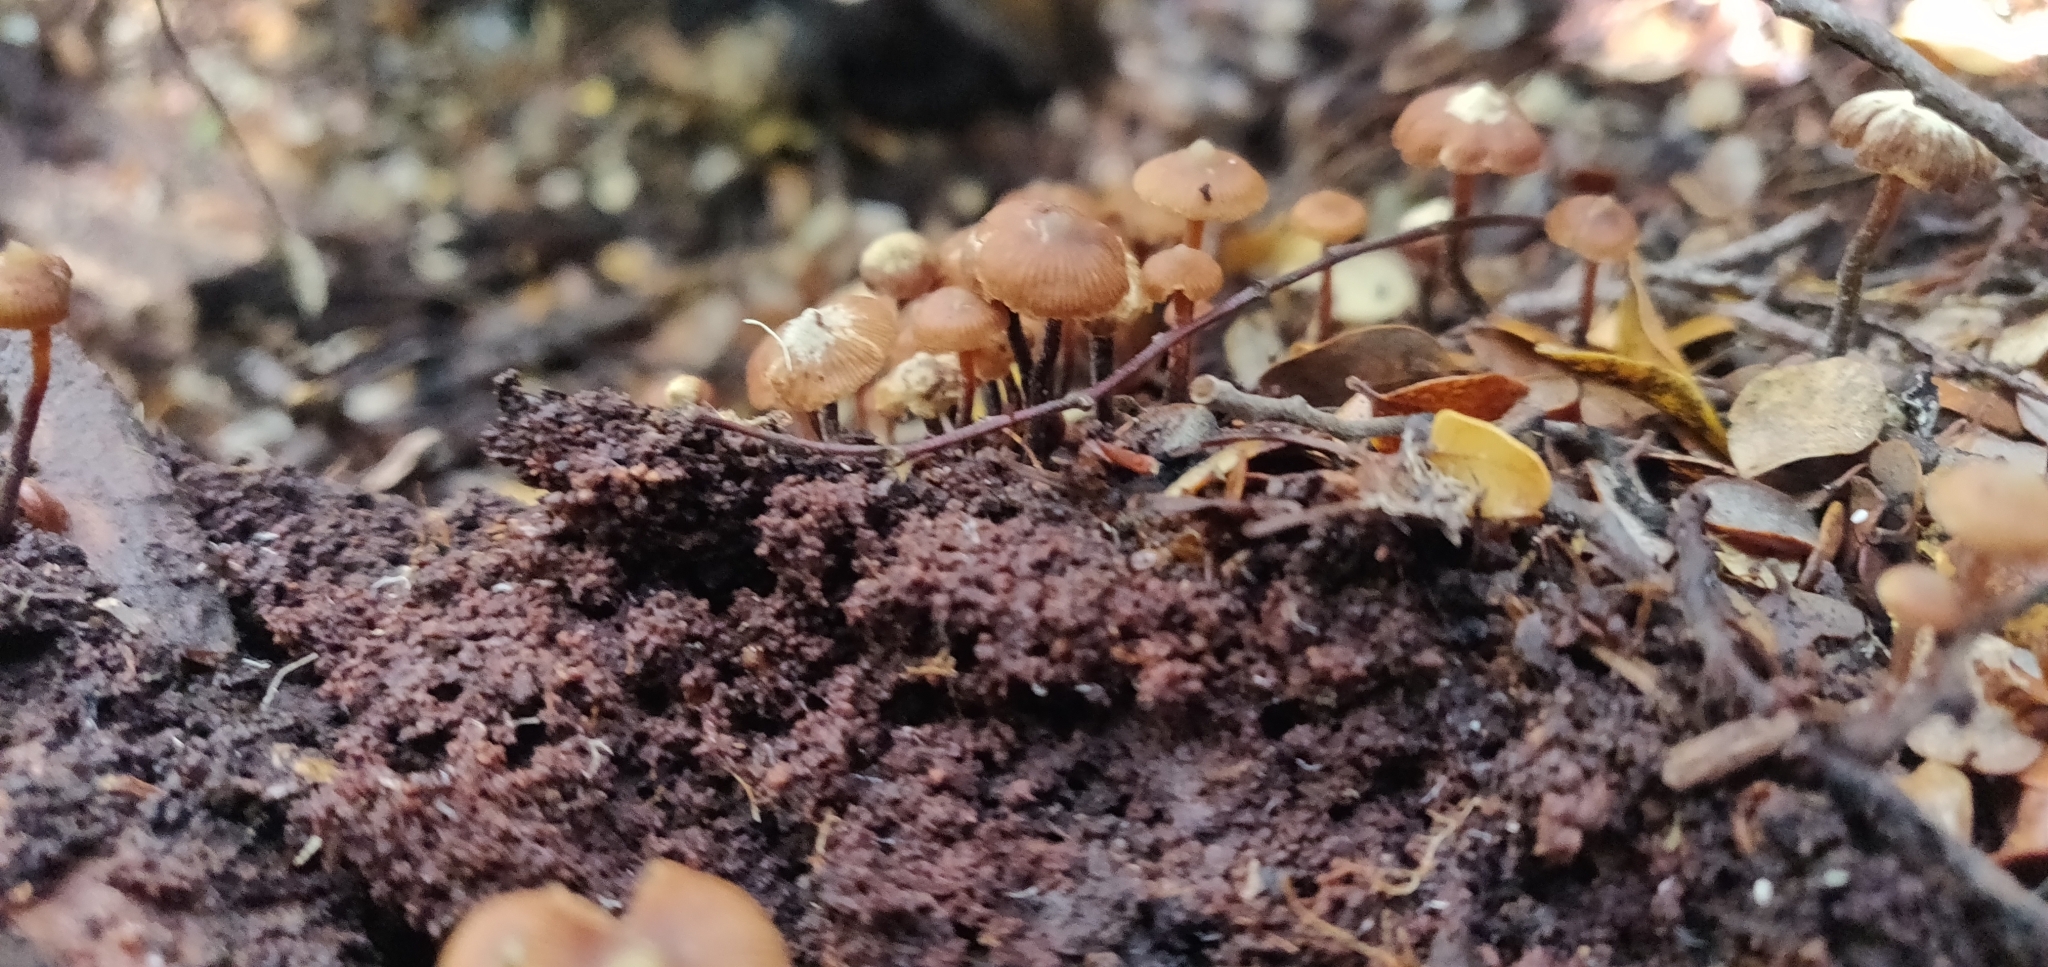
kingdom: Fungi
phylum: Basidiomycota
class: Agaricomycetes
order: Agaricales
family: Strophariaceae
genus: Kuehneromyces
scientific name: Kuehneromyces brunneoalbescens
